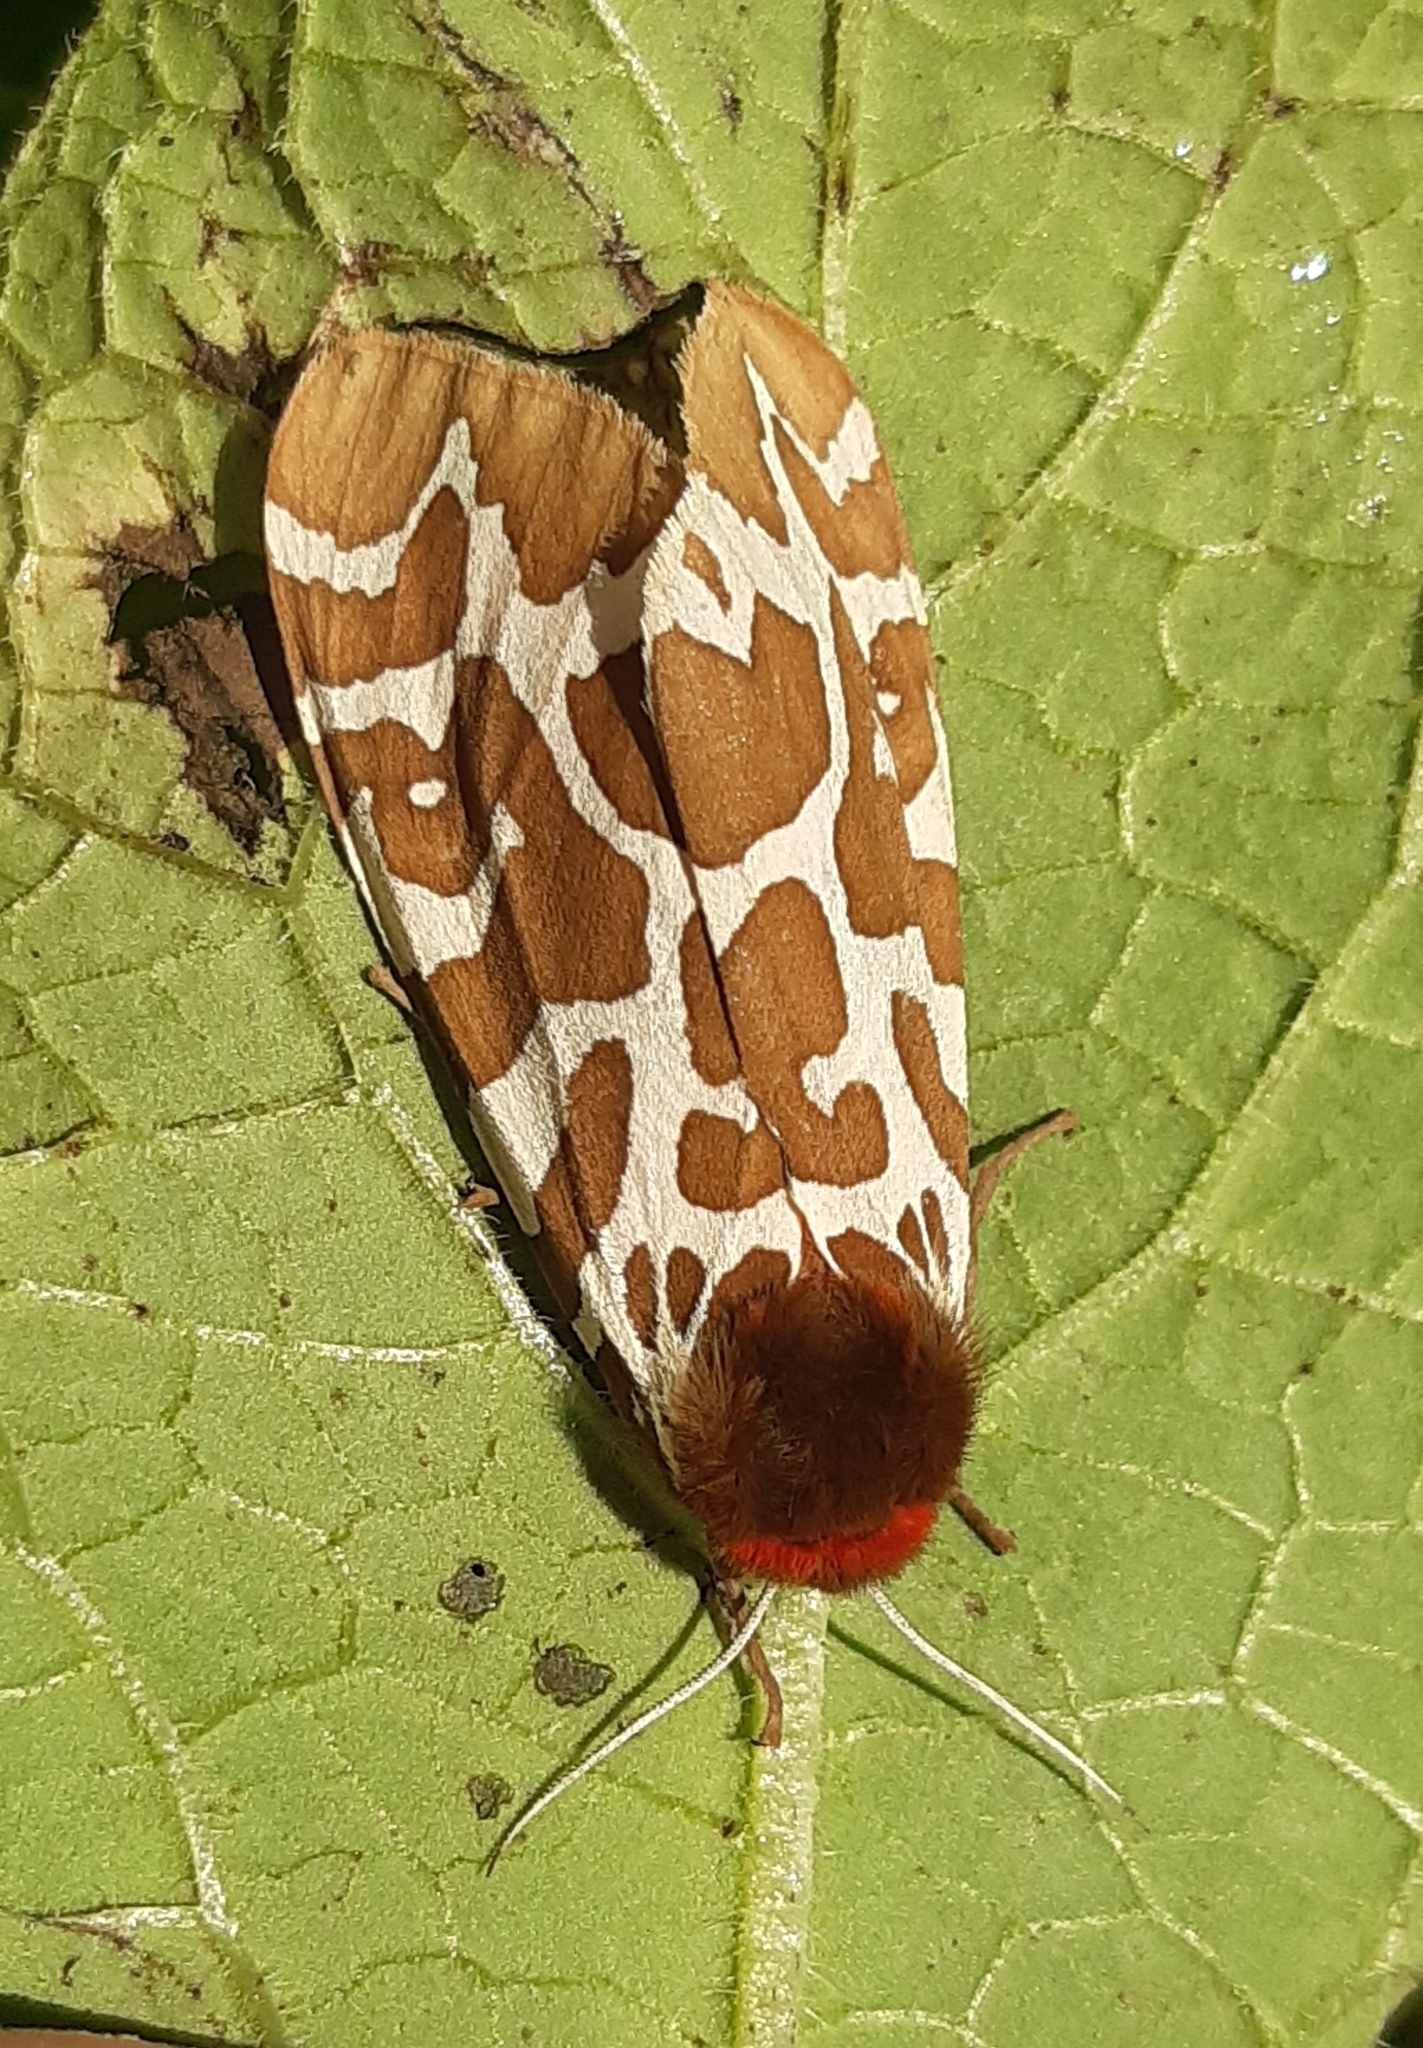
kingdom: Animalia
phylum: Arthropoda
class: Insecta
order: Lepidoptera
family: Erebidae
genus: Arctia
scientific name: Arctia caja
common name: Garden tiger
